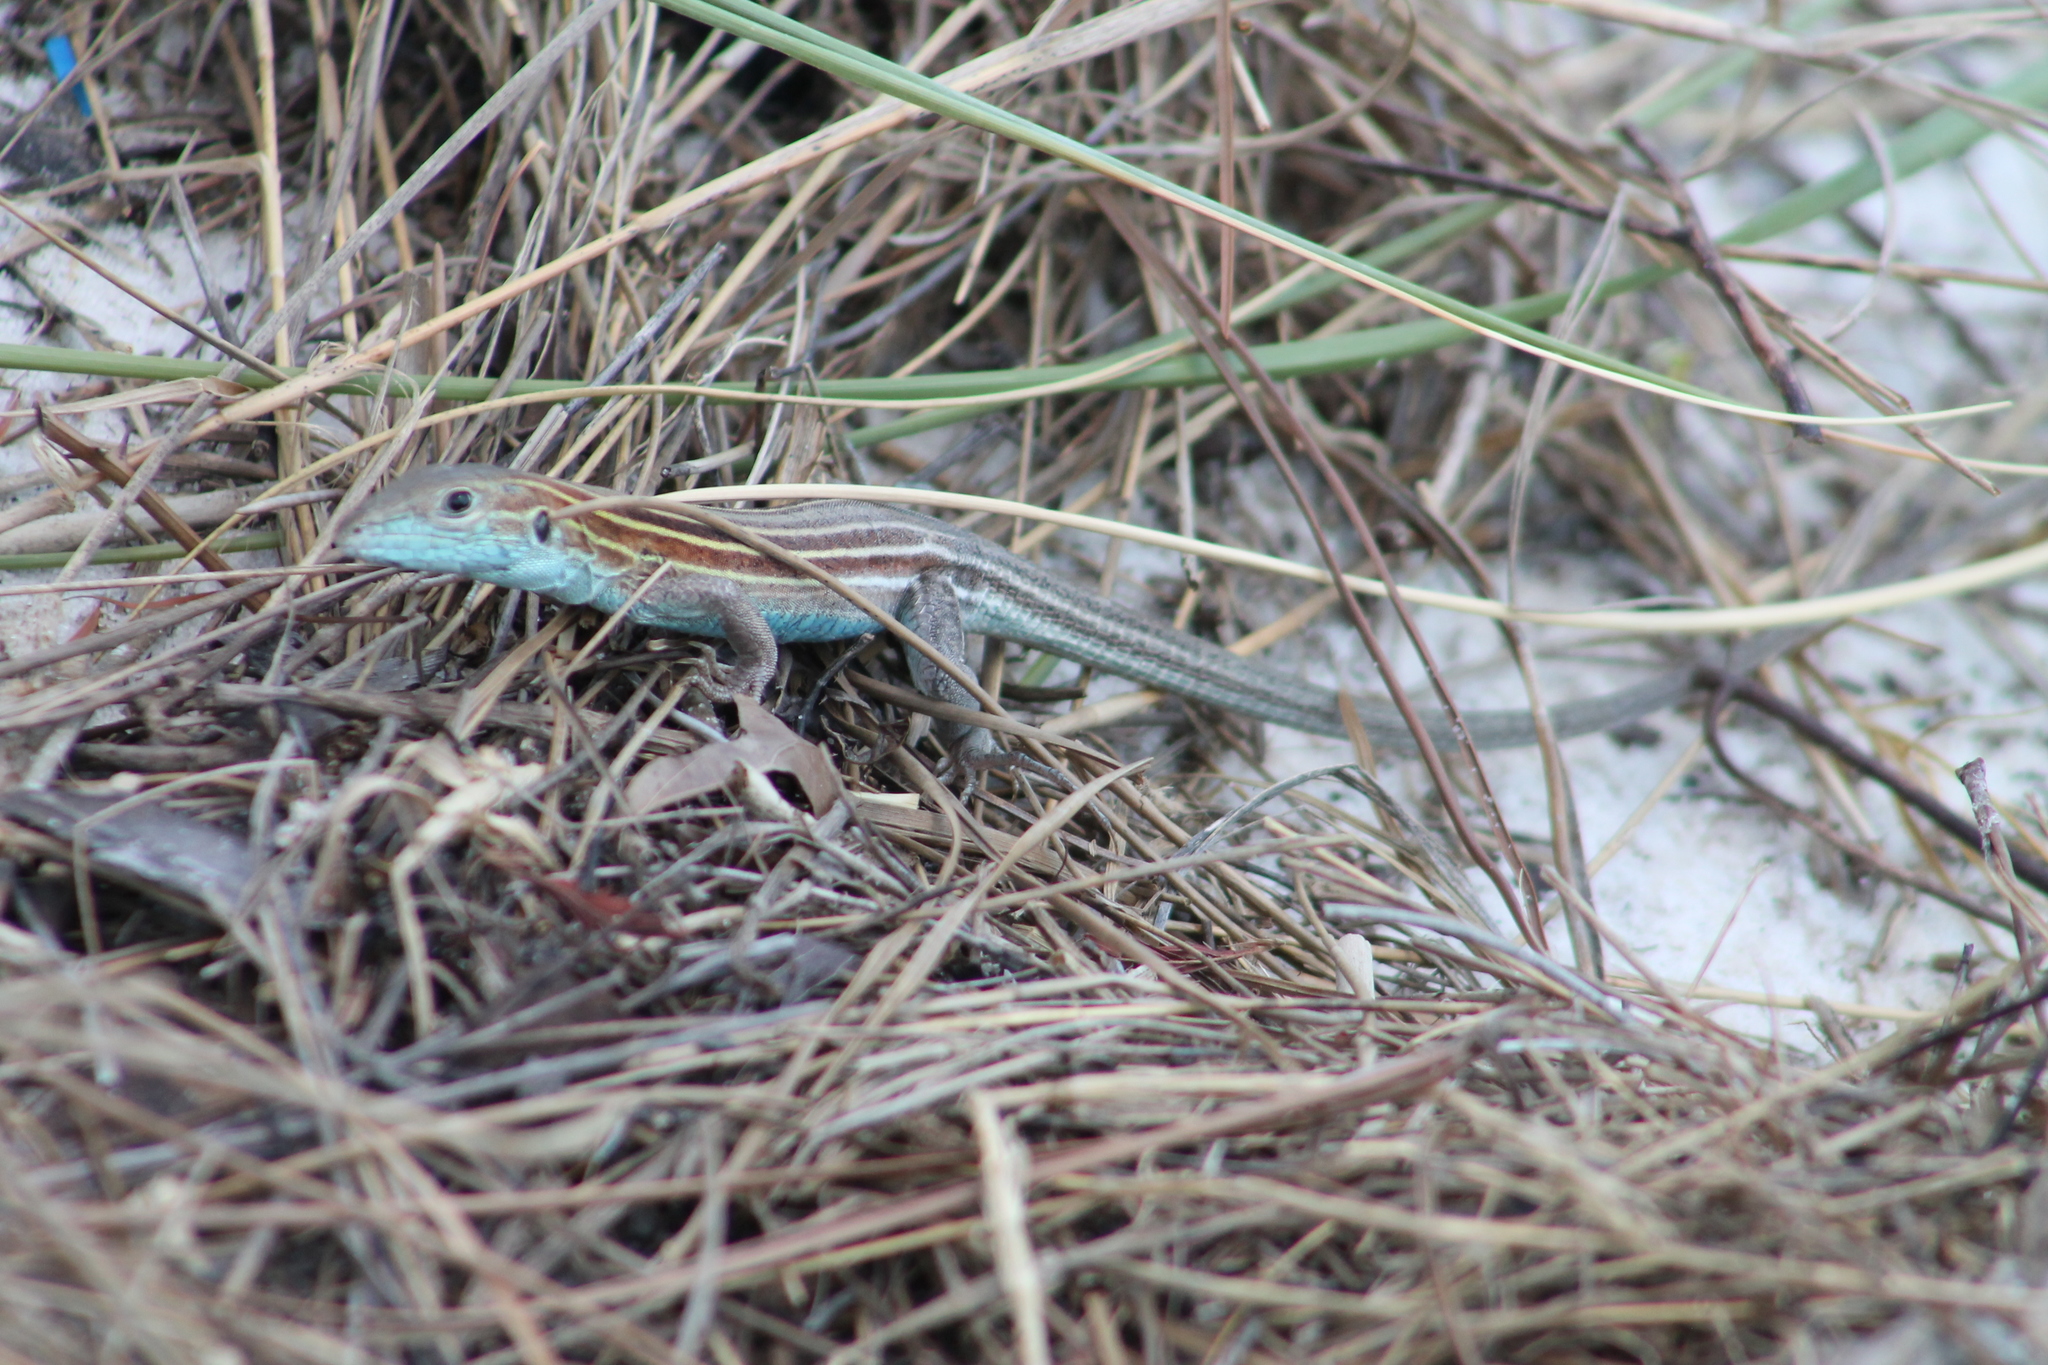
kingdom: Animalia
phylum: Chordata
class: Squamata
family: Teiidae
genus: Aspidoscelis
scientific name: Aspidoscelis sexlineatus
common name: Six-lined racerunner
